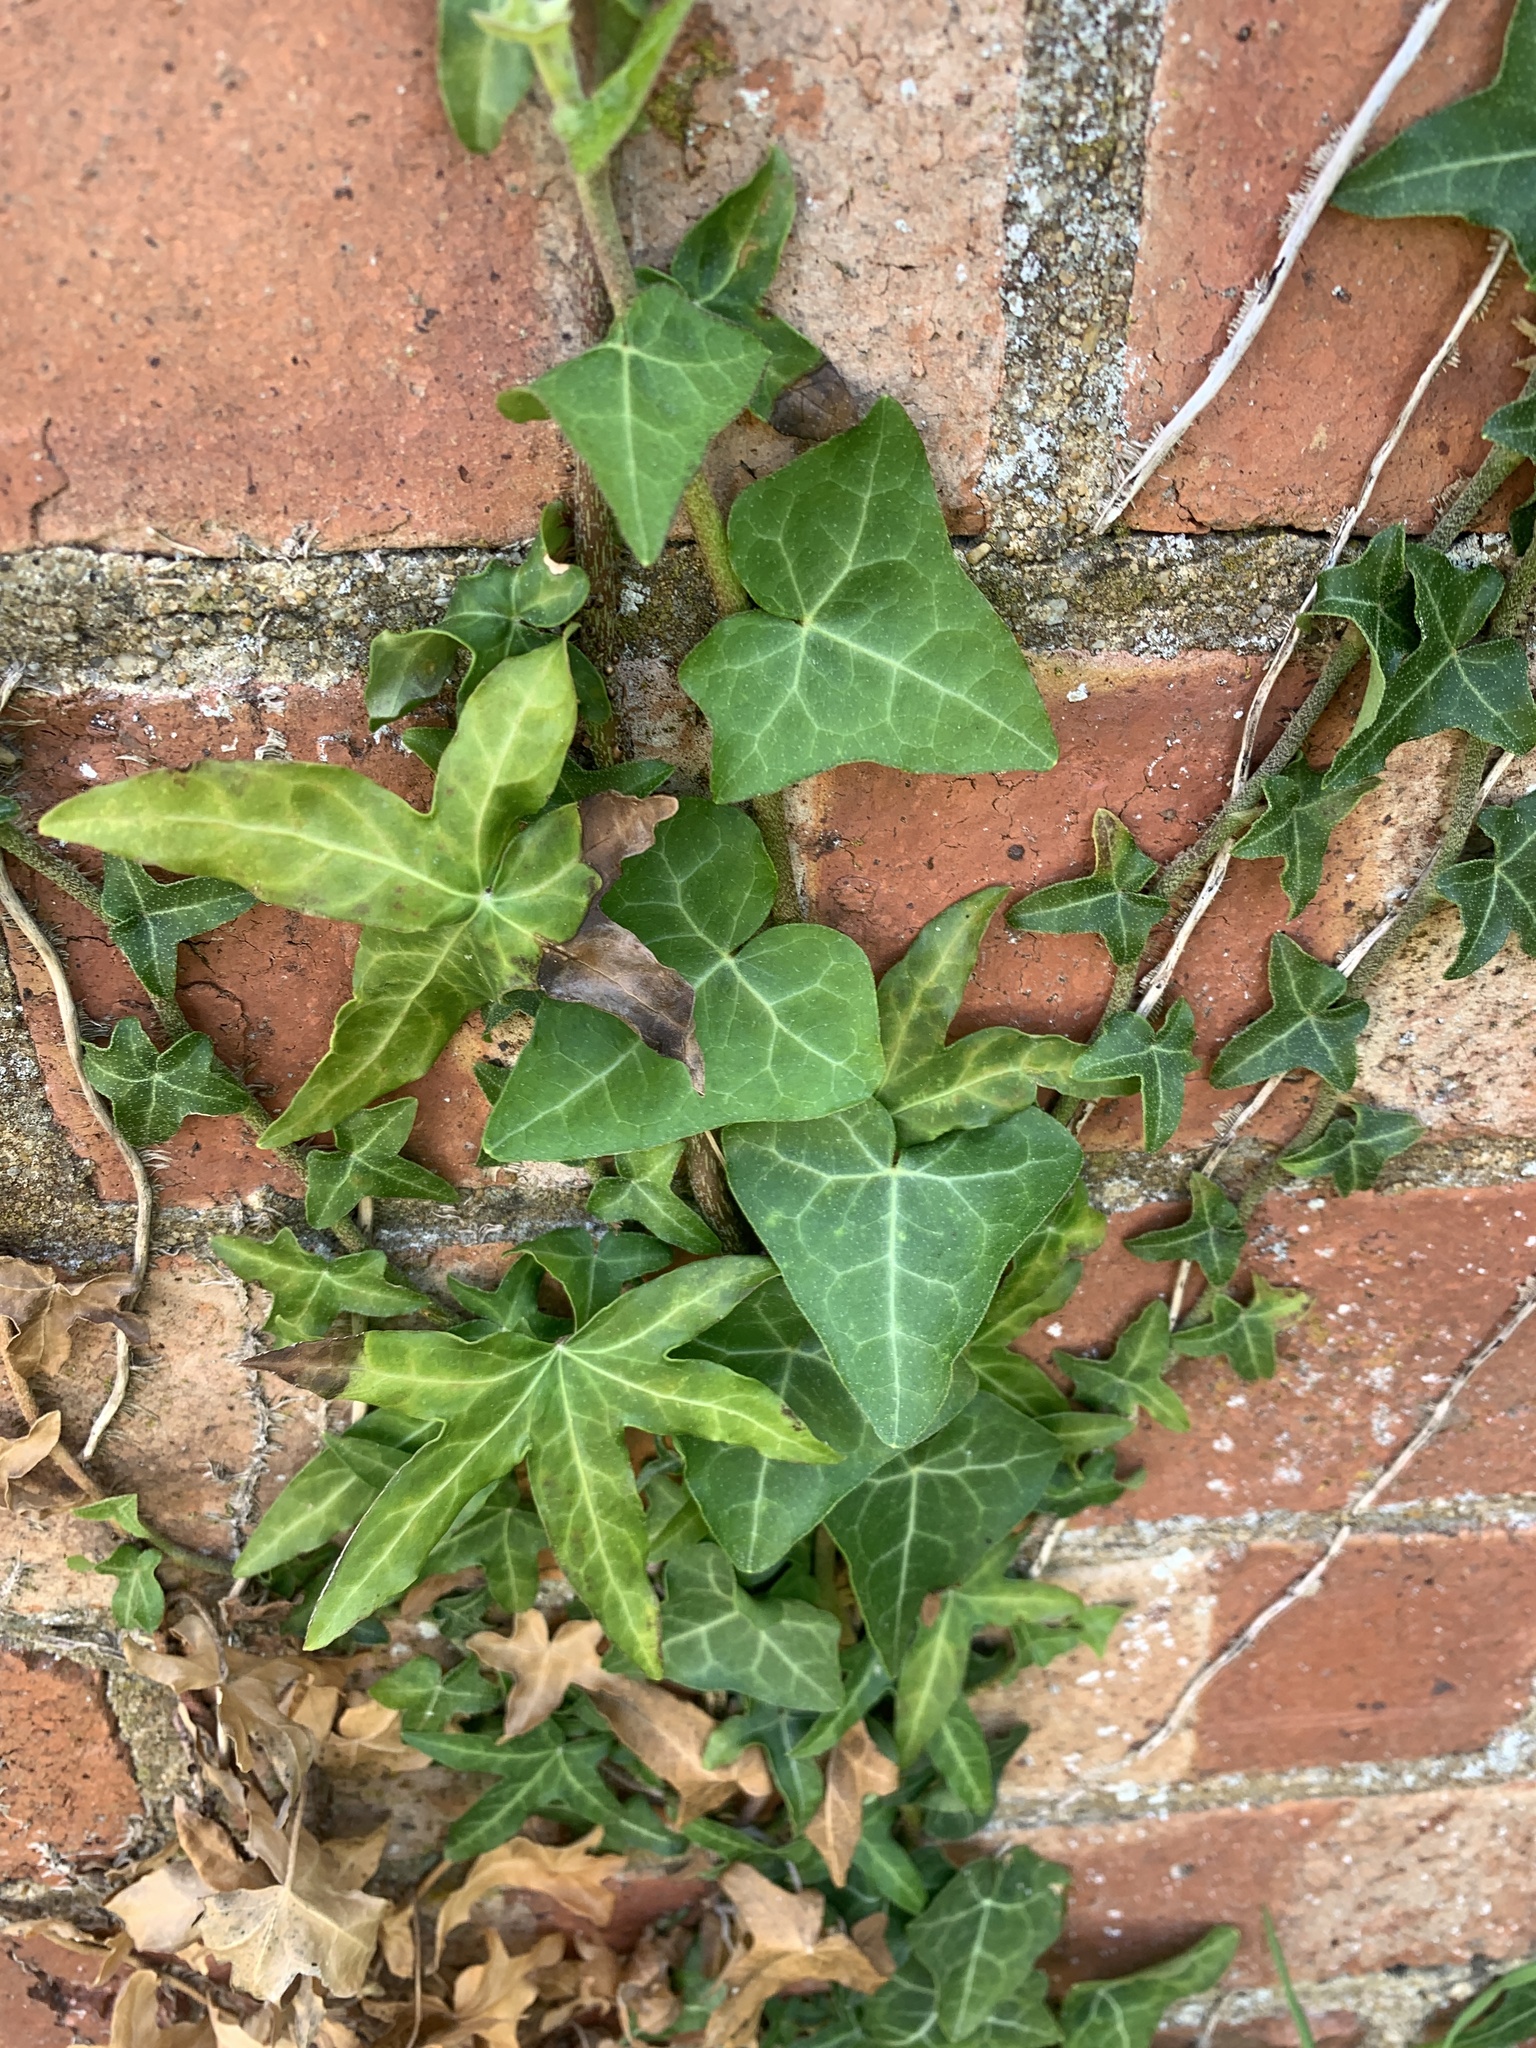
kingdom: Plantae
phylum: Tracheophyta
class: Magnoliopsida
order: Apiales
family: Araliaceae
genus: Hedera
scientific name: Hedera helix
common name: Ivy
